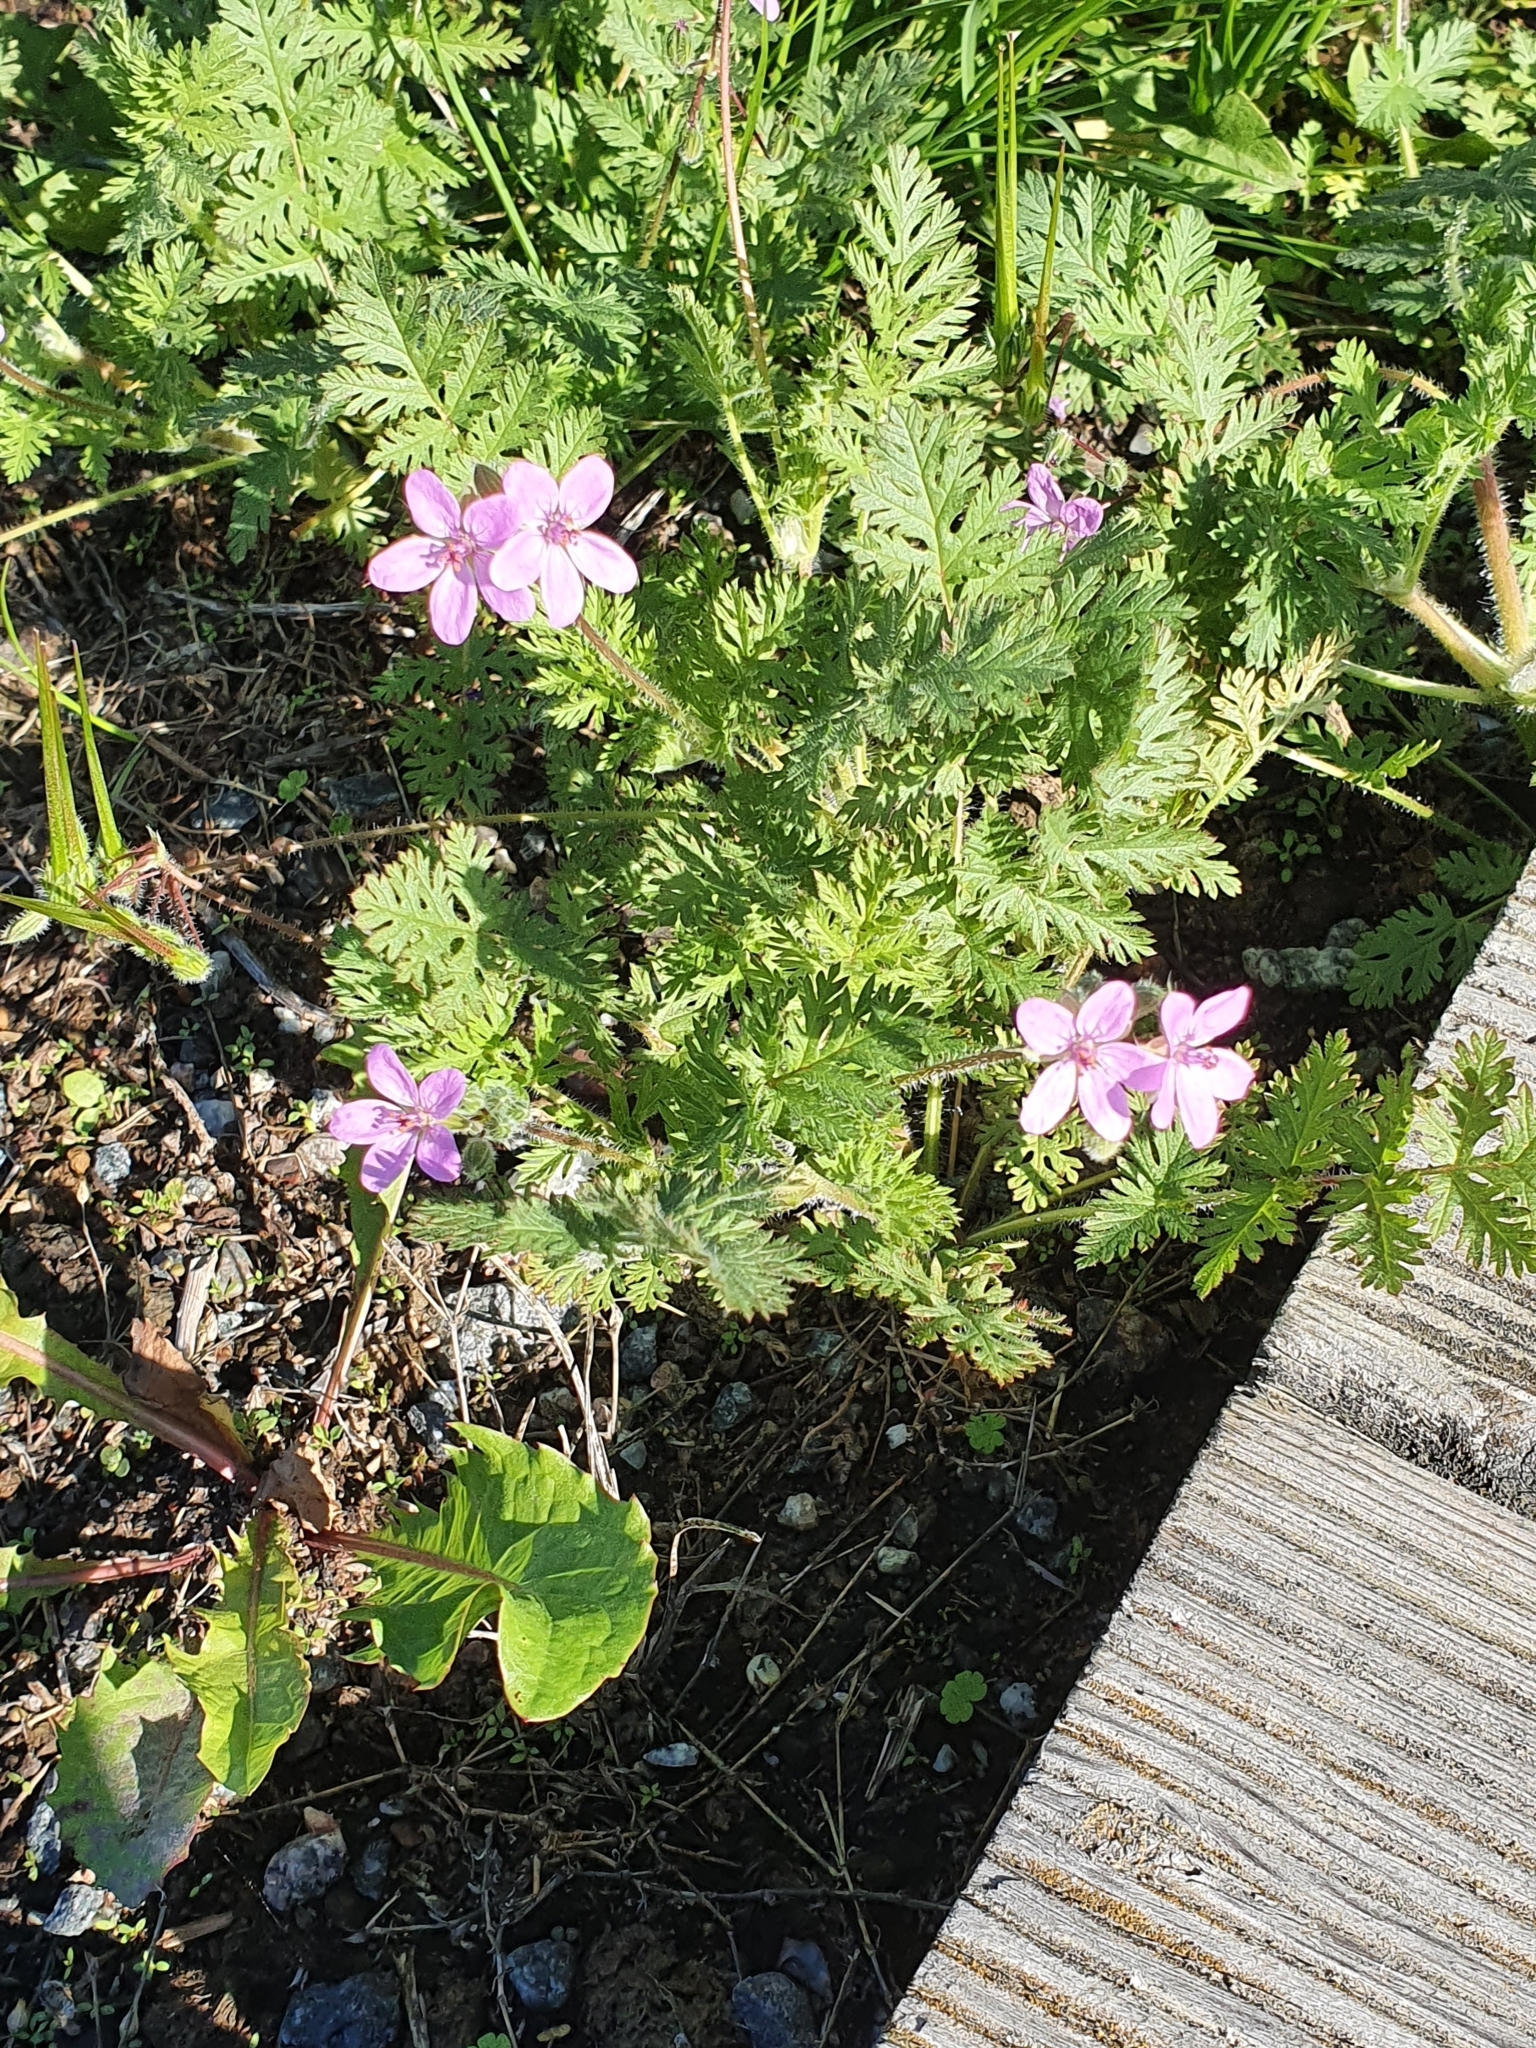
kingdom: Plantae
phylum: Tracheophyta
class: Magnoliopsida
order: Geraniales
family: Geraniaceae
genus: Erodium
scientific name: Erodium cicutarium
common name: Common stork's-bill
